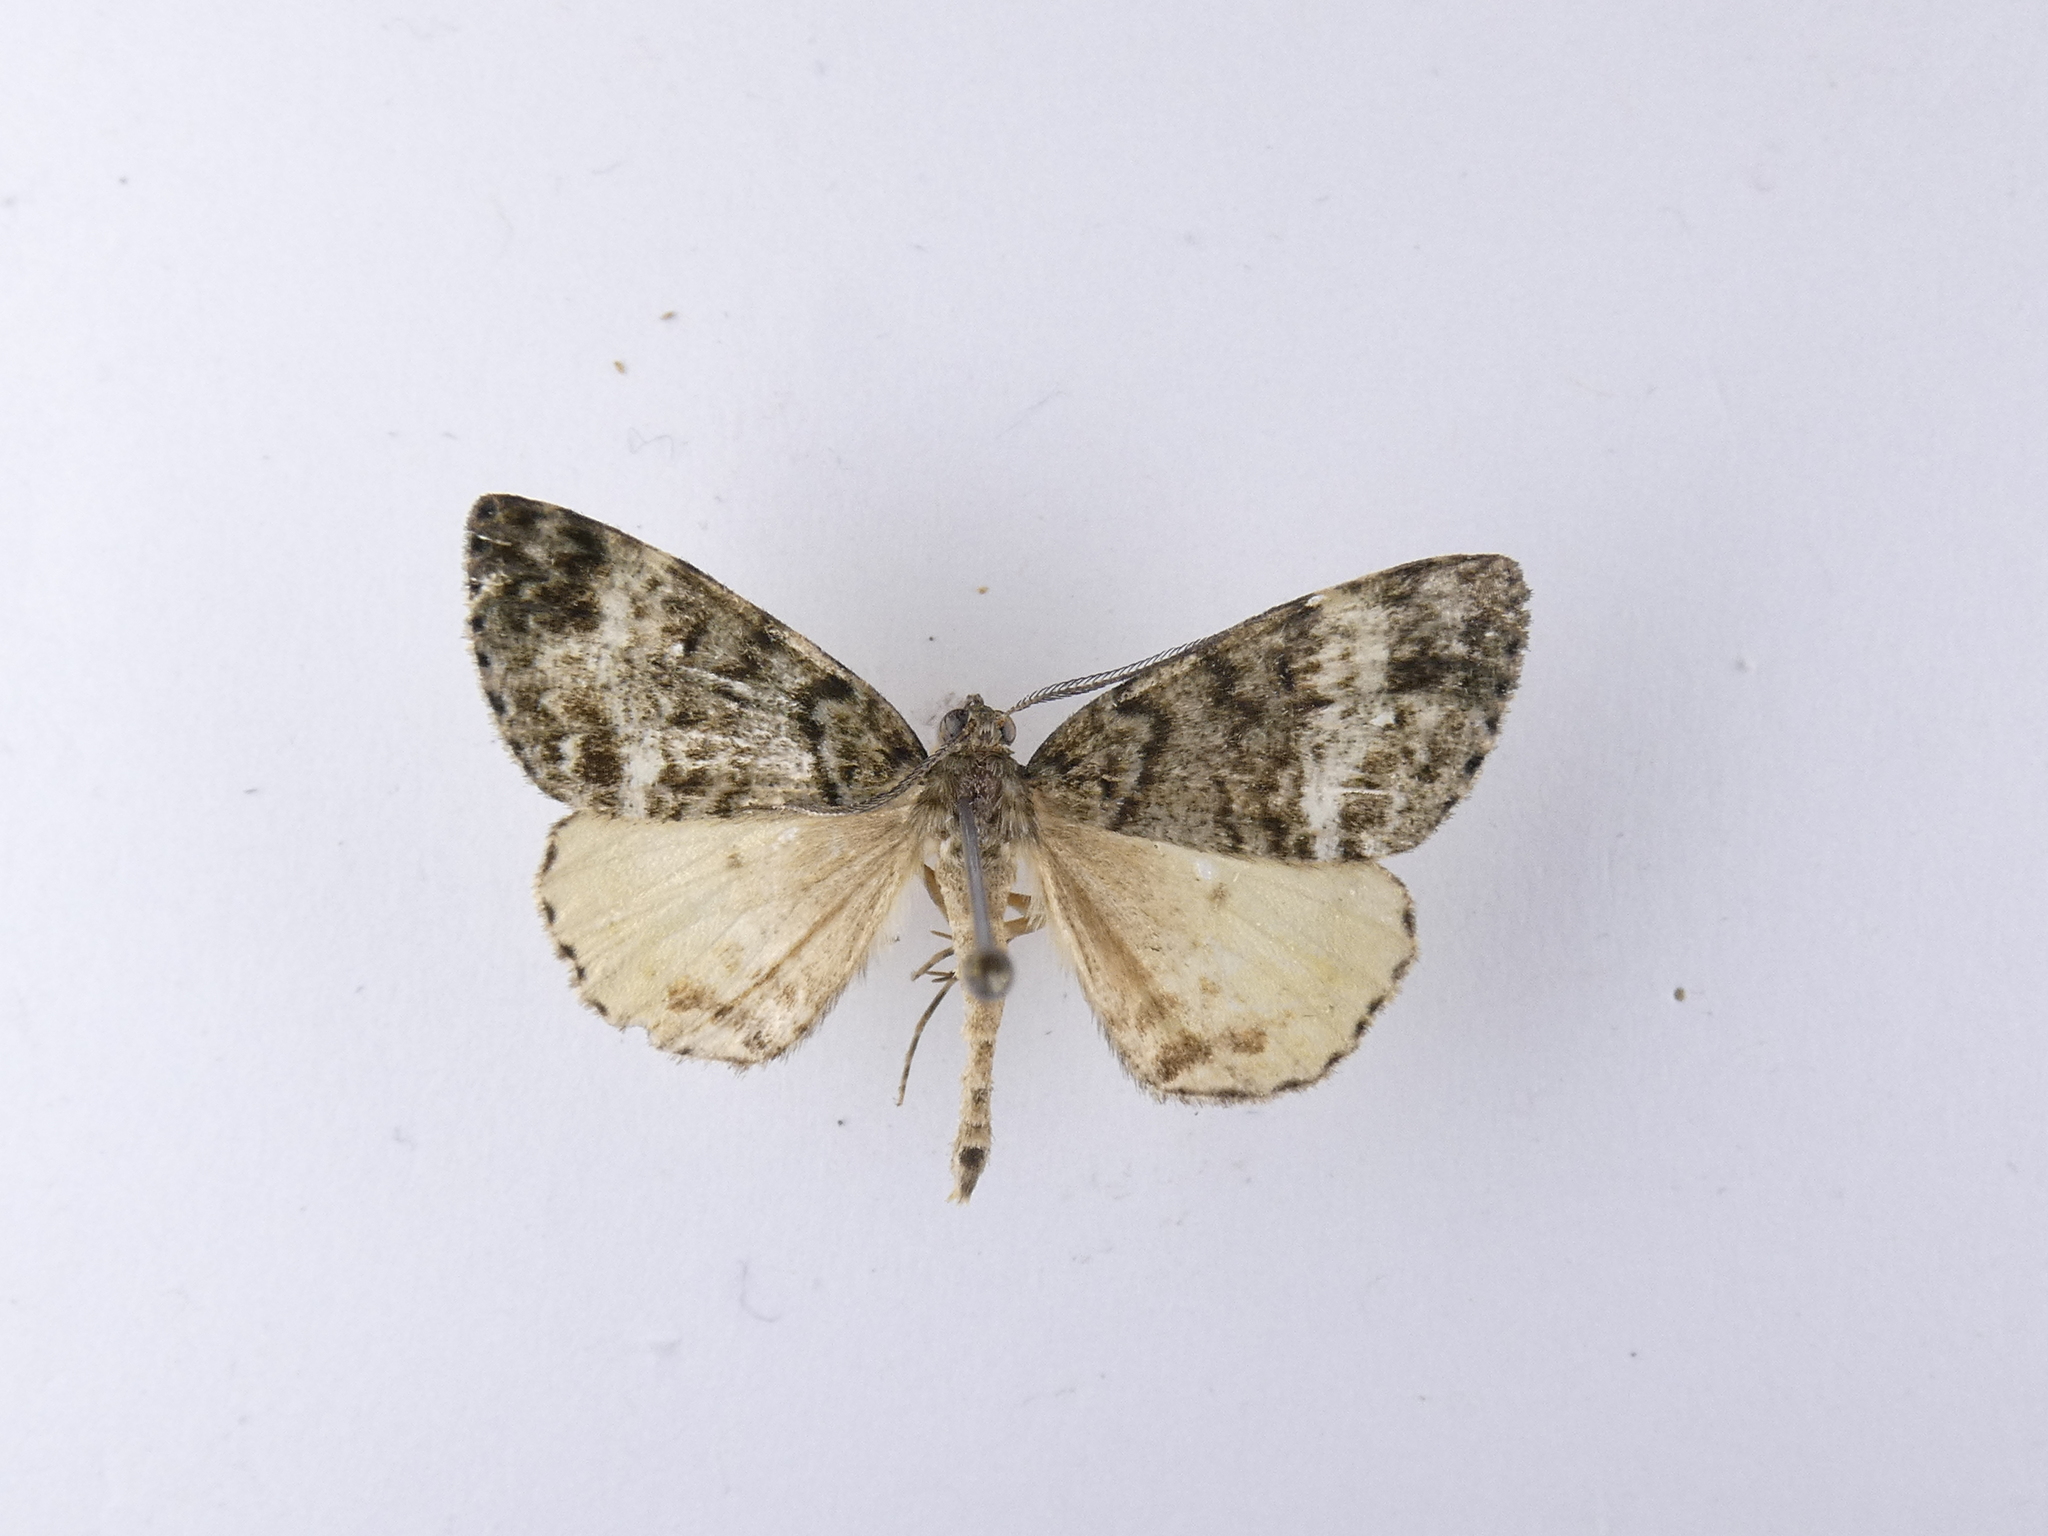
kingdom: Animalia
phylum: Arthropoda
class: Insecta
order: Lepidoptera
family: Geometridae
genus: Pseudocoremia
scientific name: Pseudocoremia indistincta
